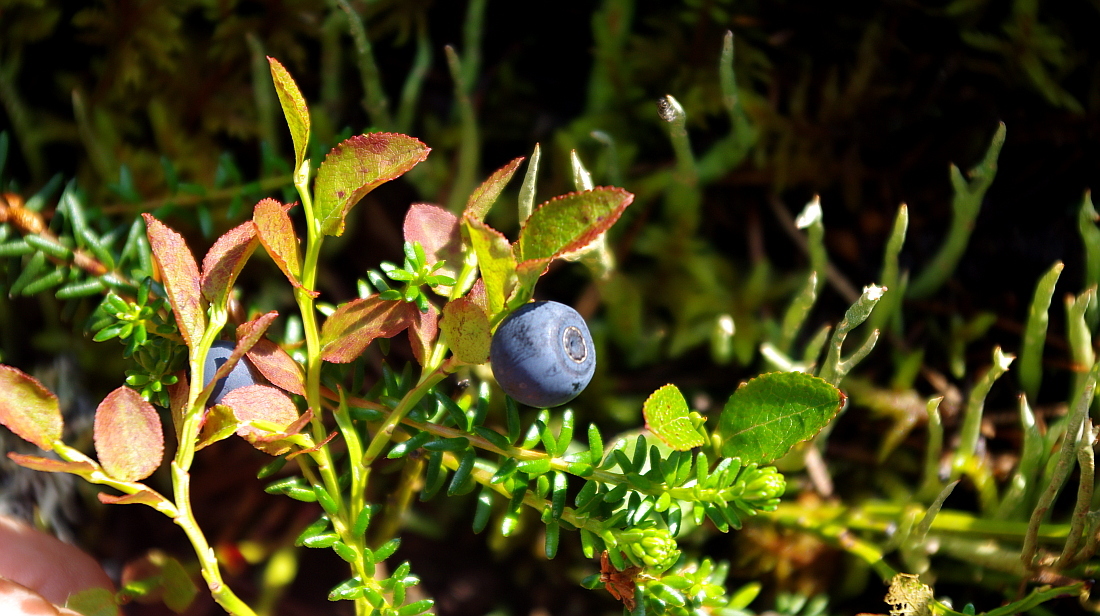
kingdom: Plantae
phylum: Tracheophyta
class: Magnoliopsida
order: Ericales
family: Ericaceae
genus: Vaccinium
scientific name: Vaccinium myrtillus
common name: Bilberry
